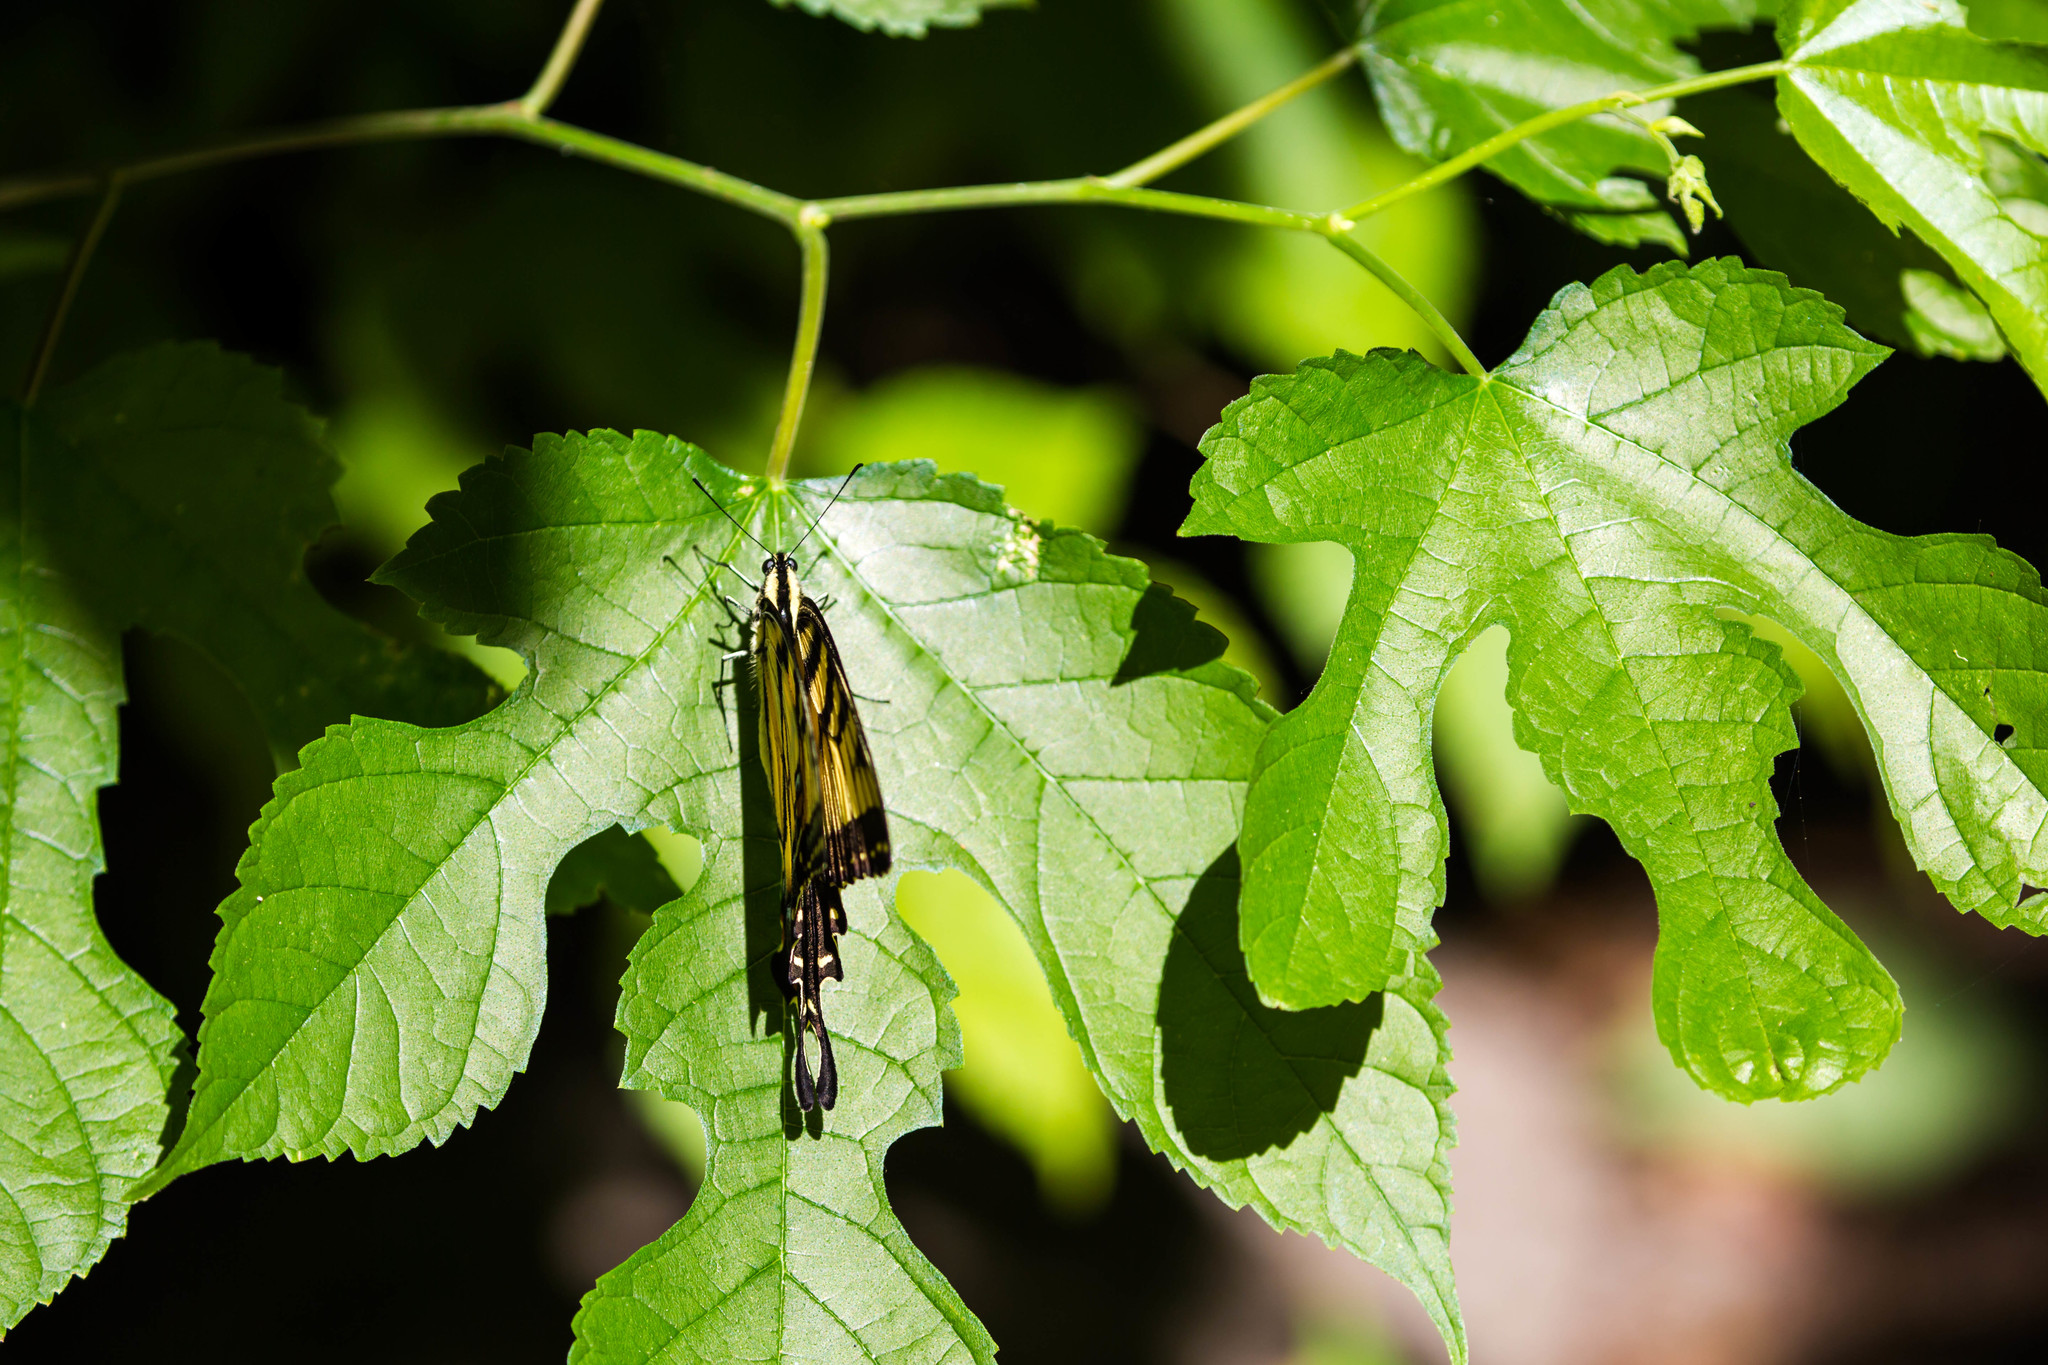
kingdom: Animalia
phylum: Arthropoda
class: Insecta
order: Lepidoptera
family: Papilionidae
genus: Papilio
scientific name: Papilio glaucus
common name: Tiger swallowtail
